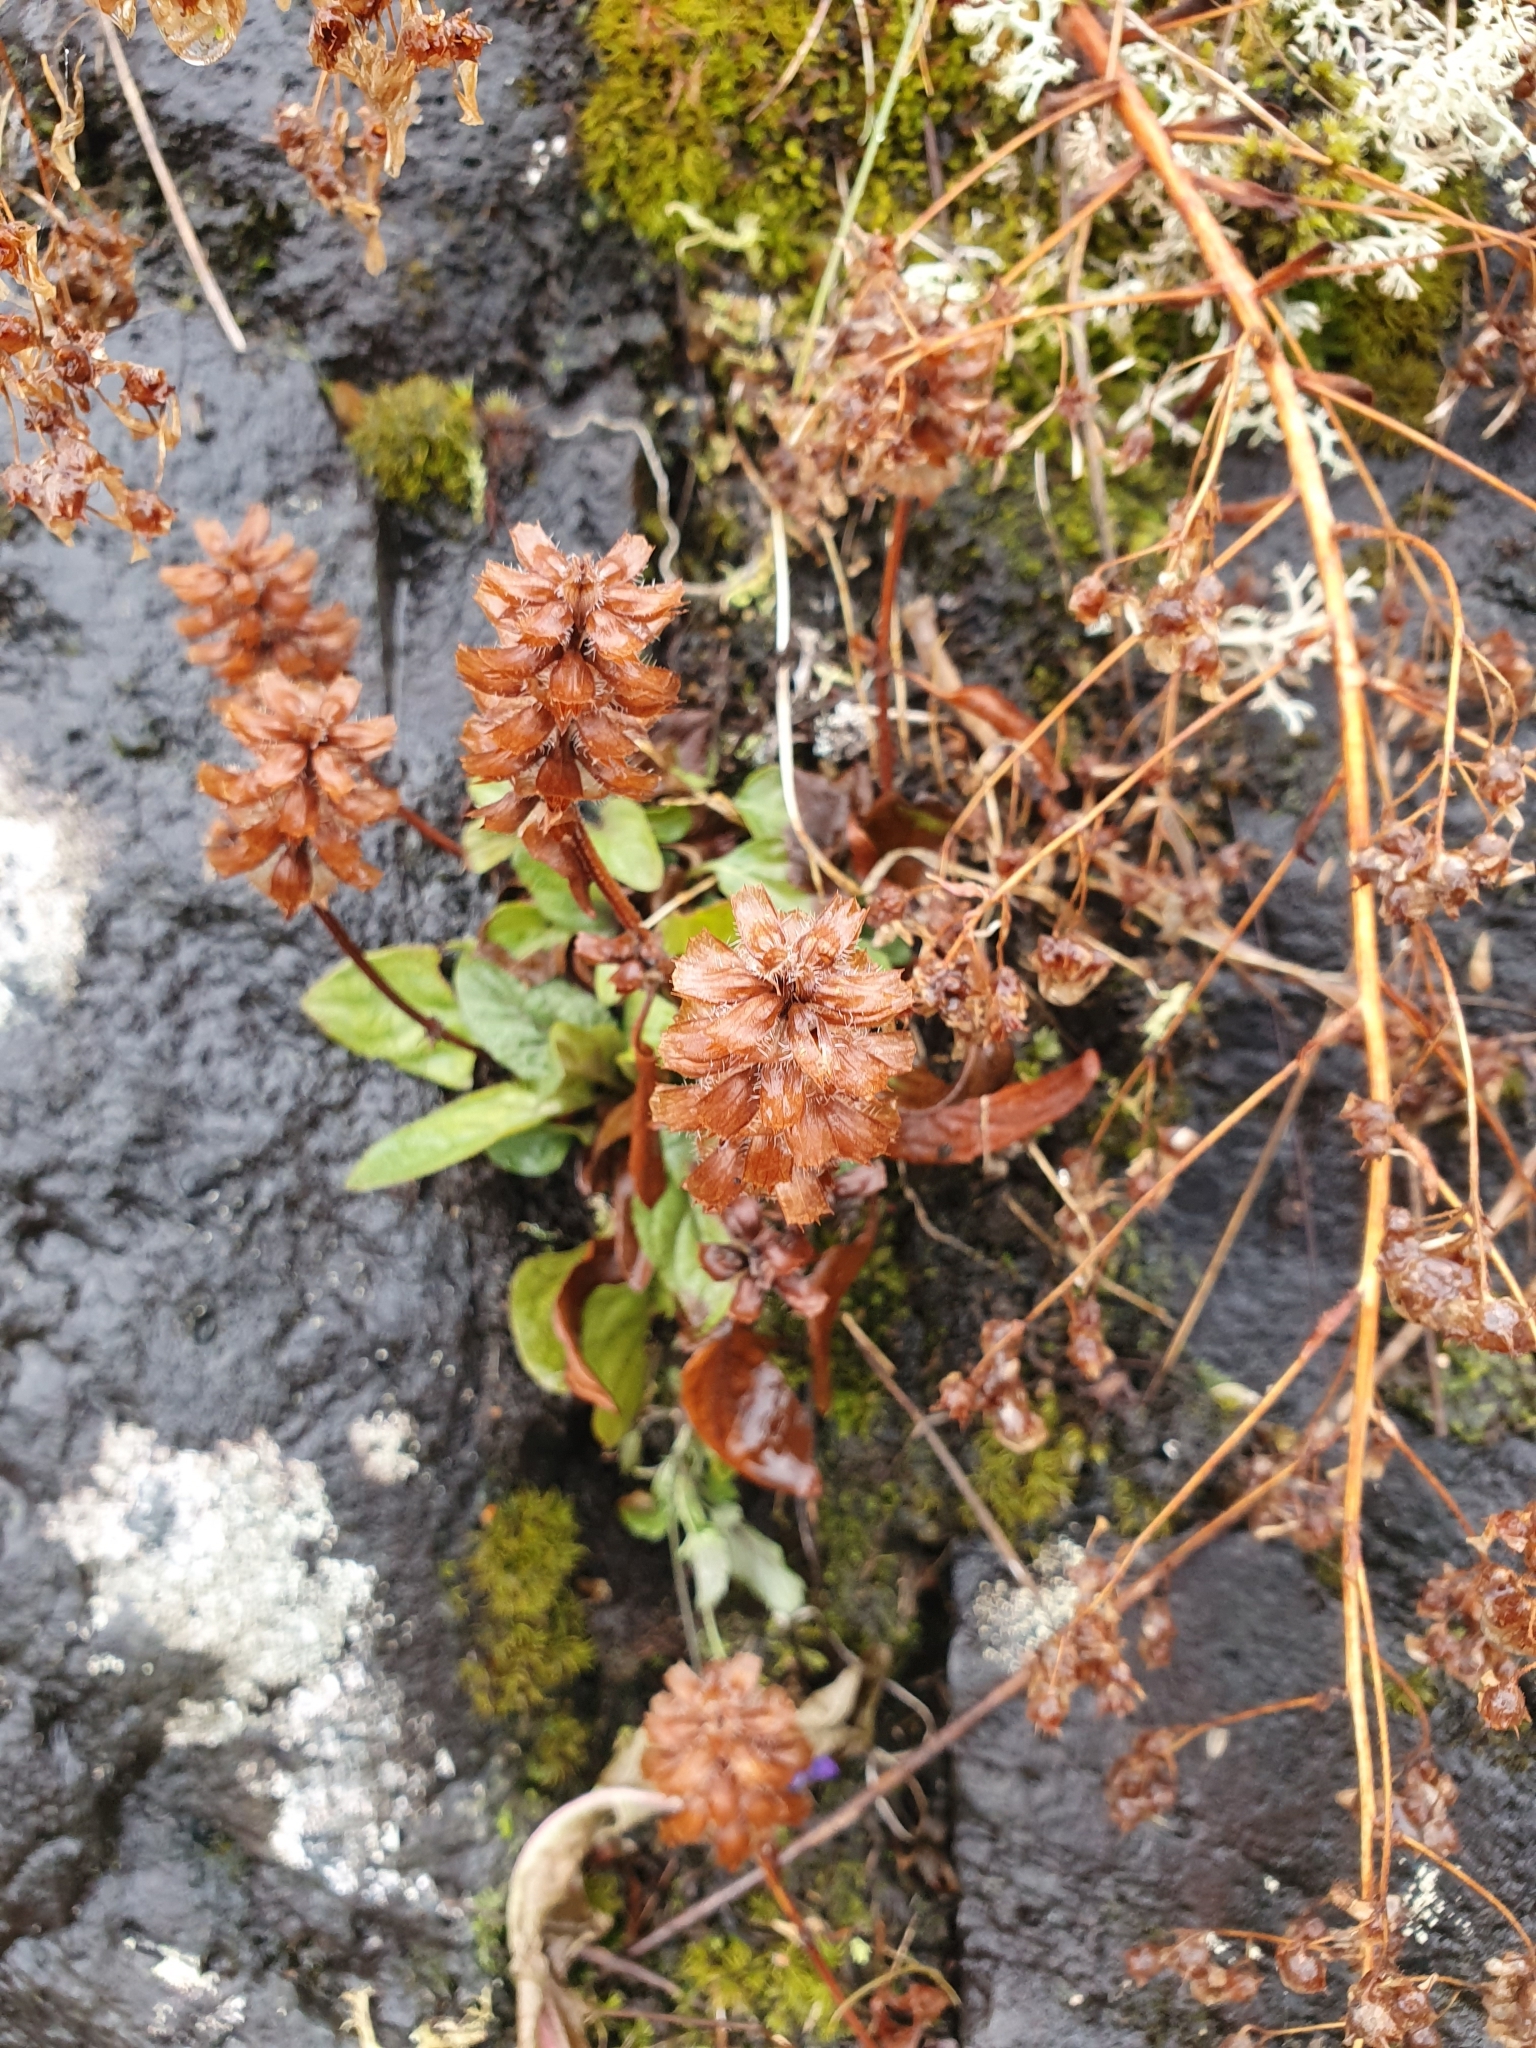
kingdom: Plantae
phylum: Tracheophyta
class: Magnoliopsida
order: Lamiales
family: Lamiaceae
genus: Prunella
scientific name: Prunella vulgaris
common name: Heal-all
